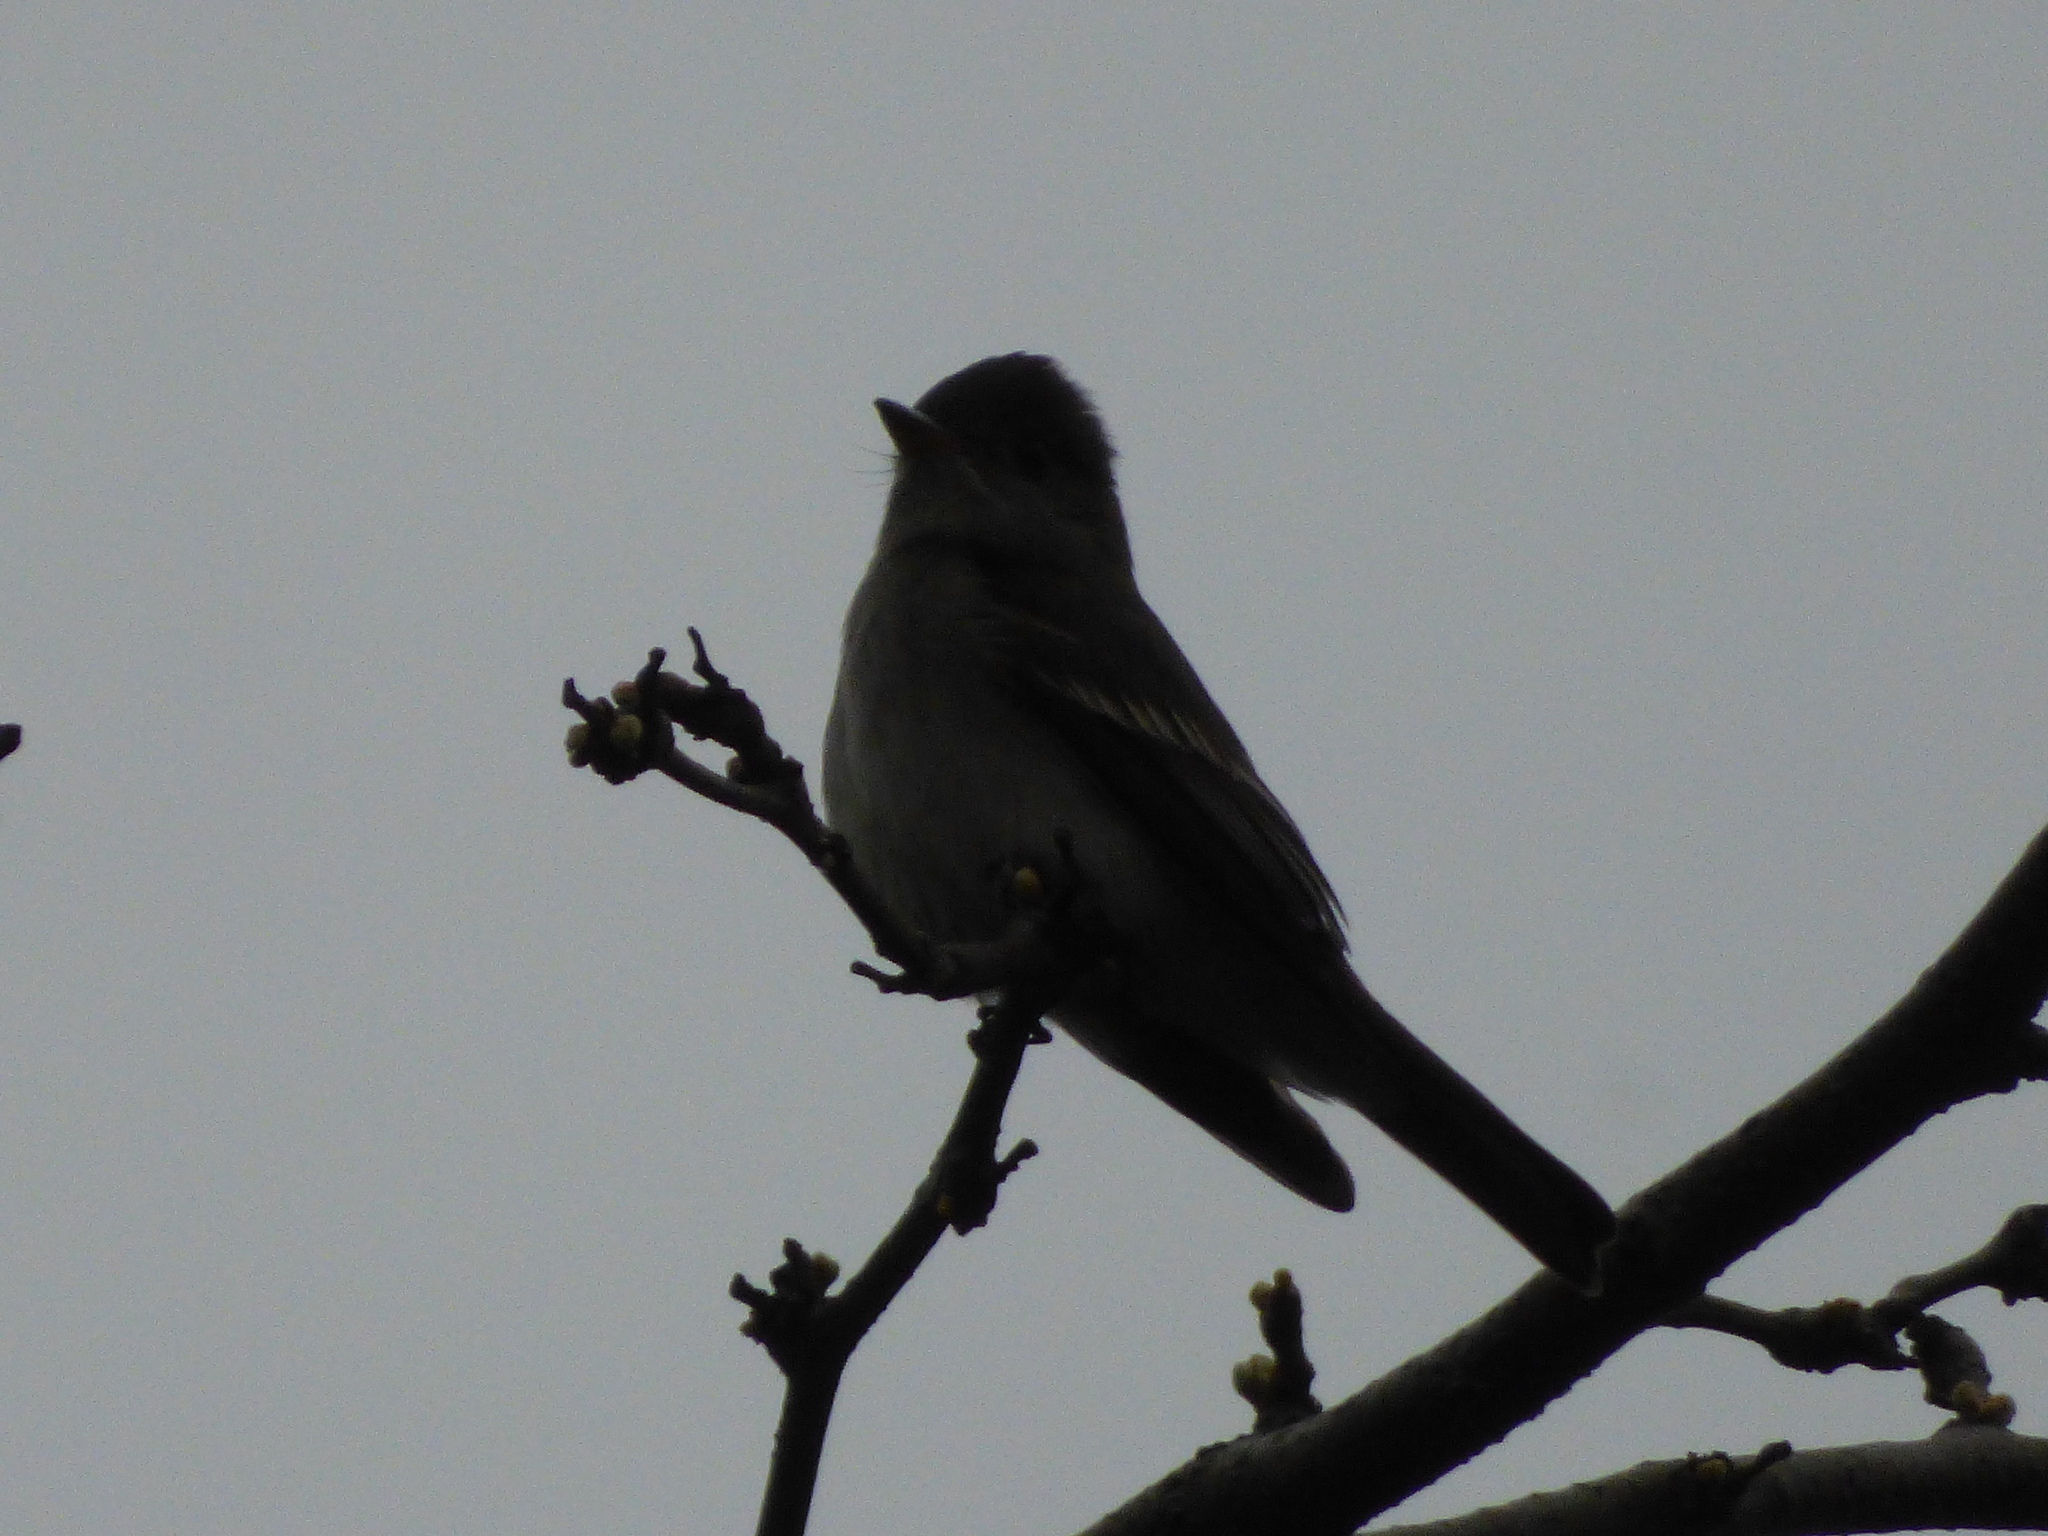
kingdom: Animalia
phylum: Chordata
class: Aves
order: Passeriformes
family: Tyrannidae
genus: Contopus
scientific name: Contopus virens
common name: Eastern wood-pewee
